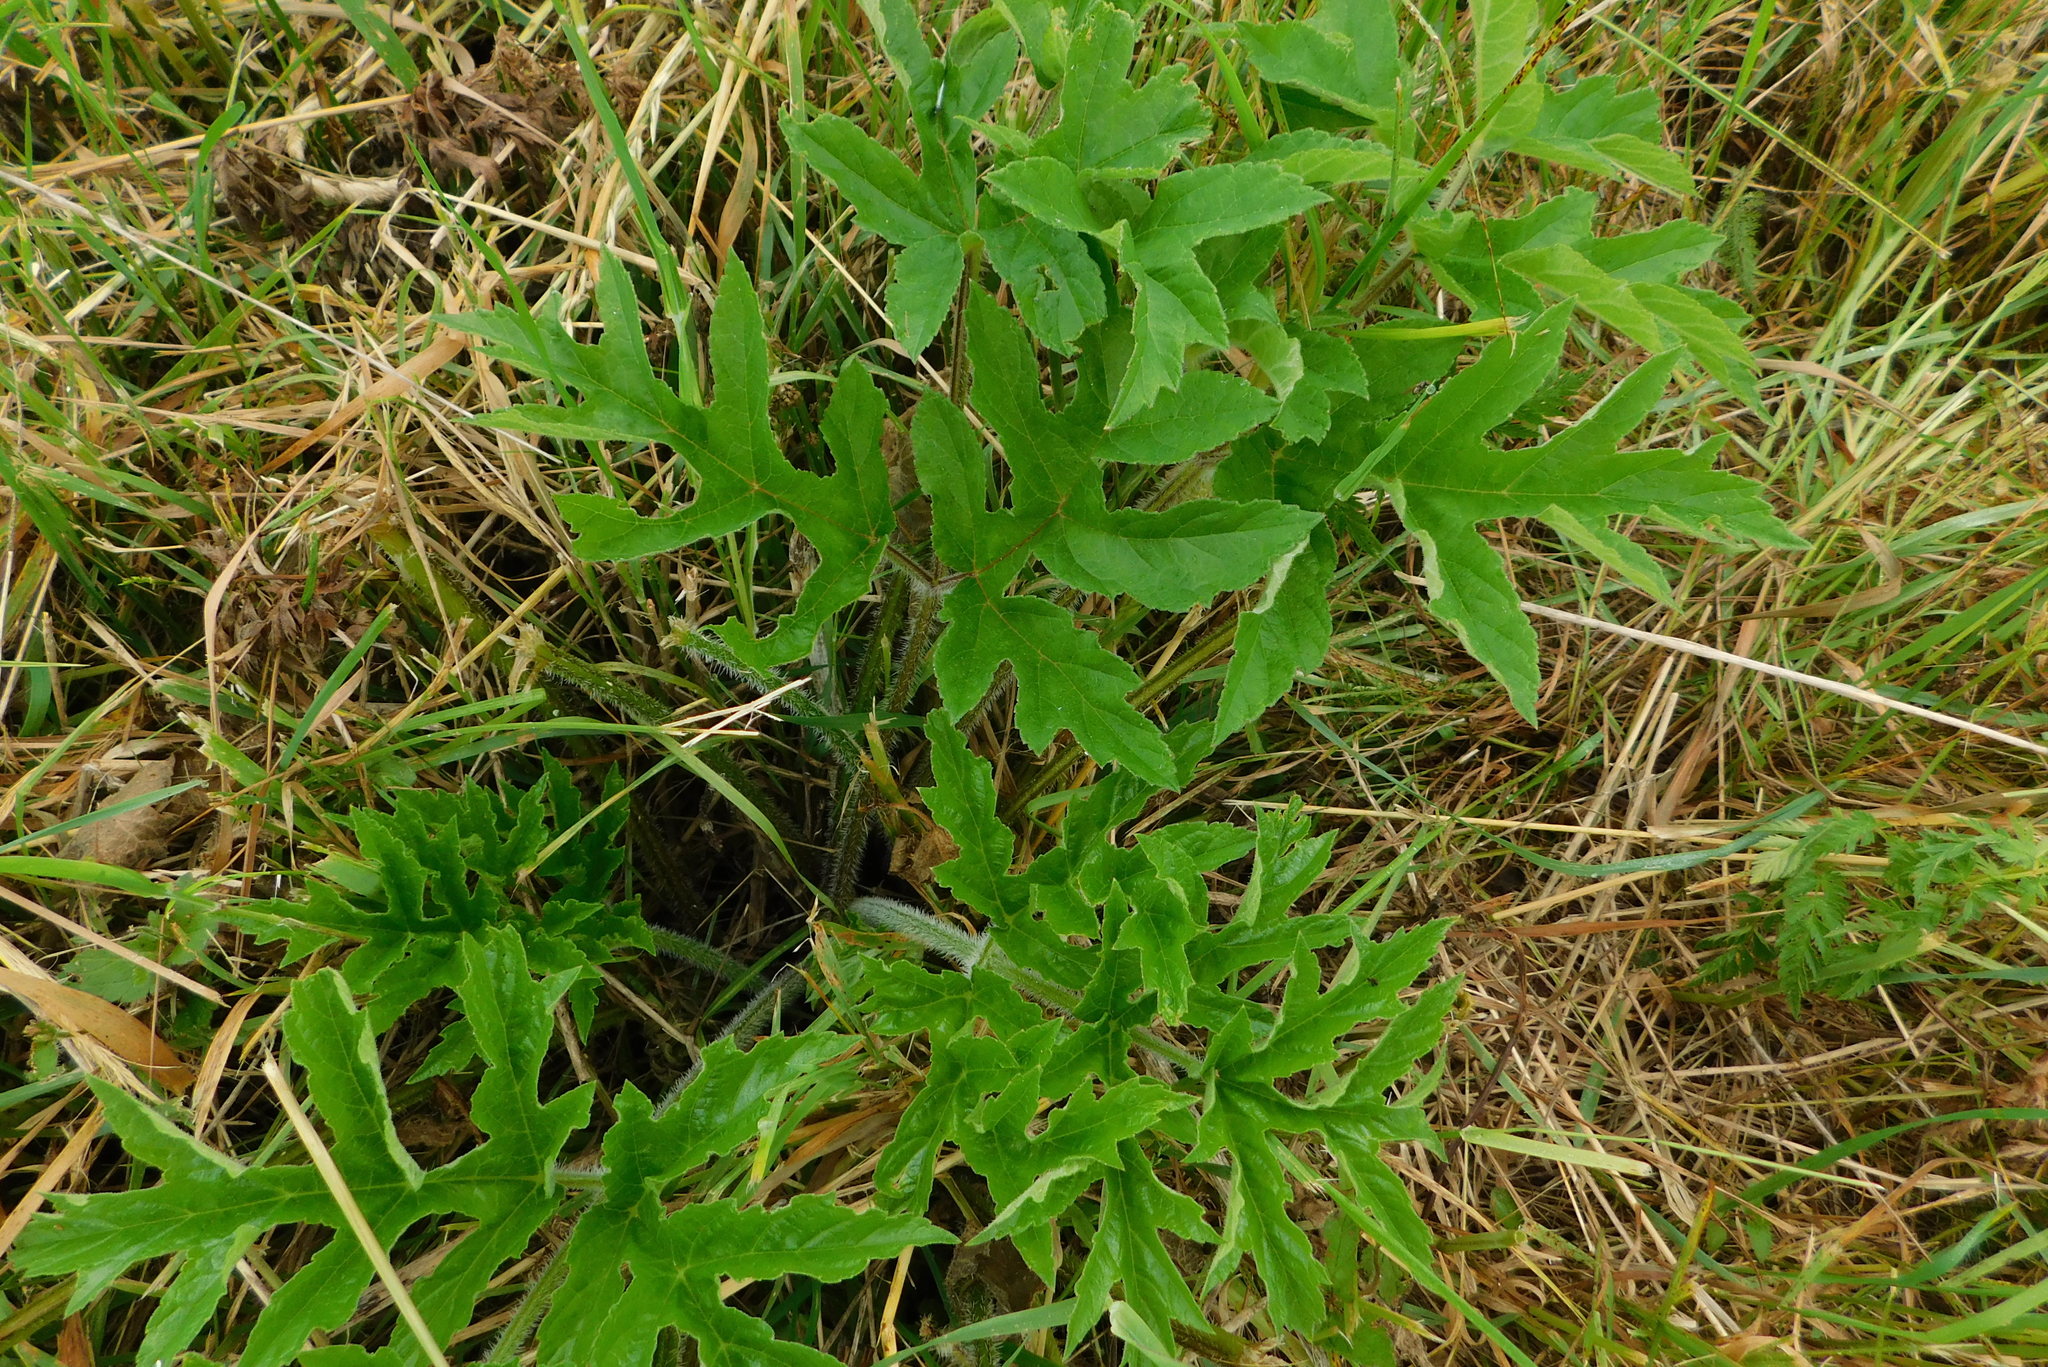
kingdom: Plantae
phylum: Tracheophyta
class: Magnoliopsida
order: Apiales
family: Apiaceae
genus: Heracleum
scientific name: Heracleum sphondylium
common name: Hogweed
